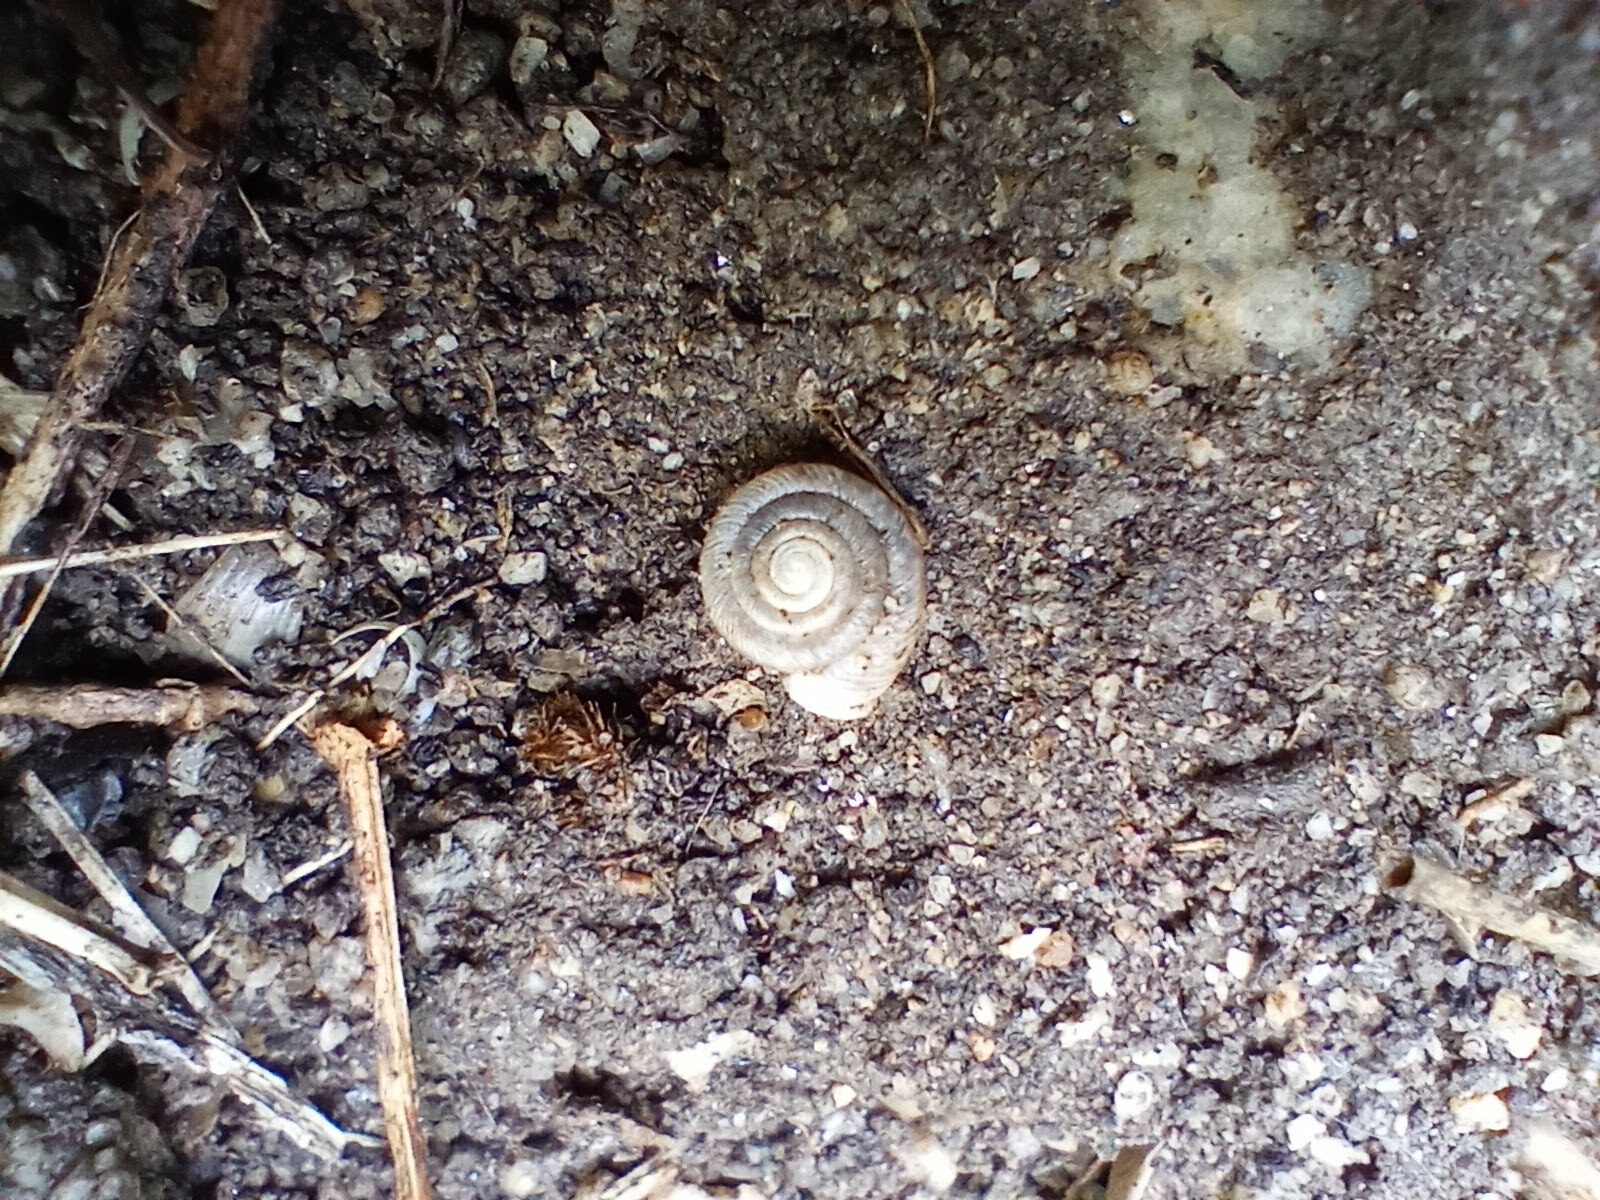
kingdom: Animalia
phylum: Mollusca
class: Gastropoda
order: Stylommatophora
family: Polygyridae
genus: Polygyra
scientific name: Polygyra cereolus
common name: Southern flatcone snail
